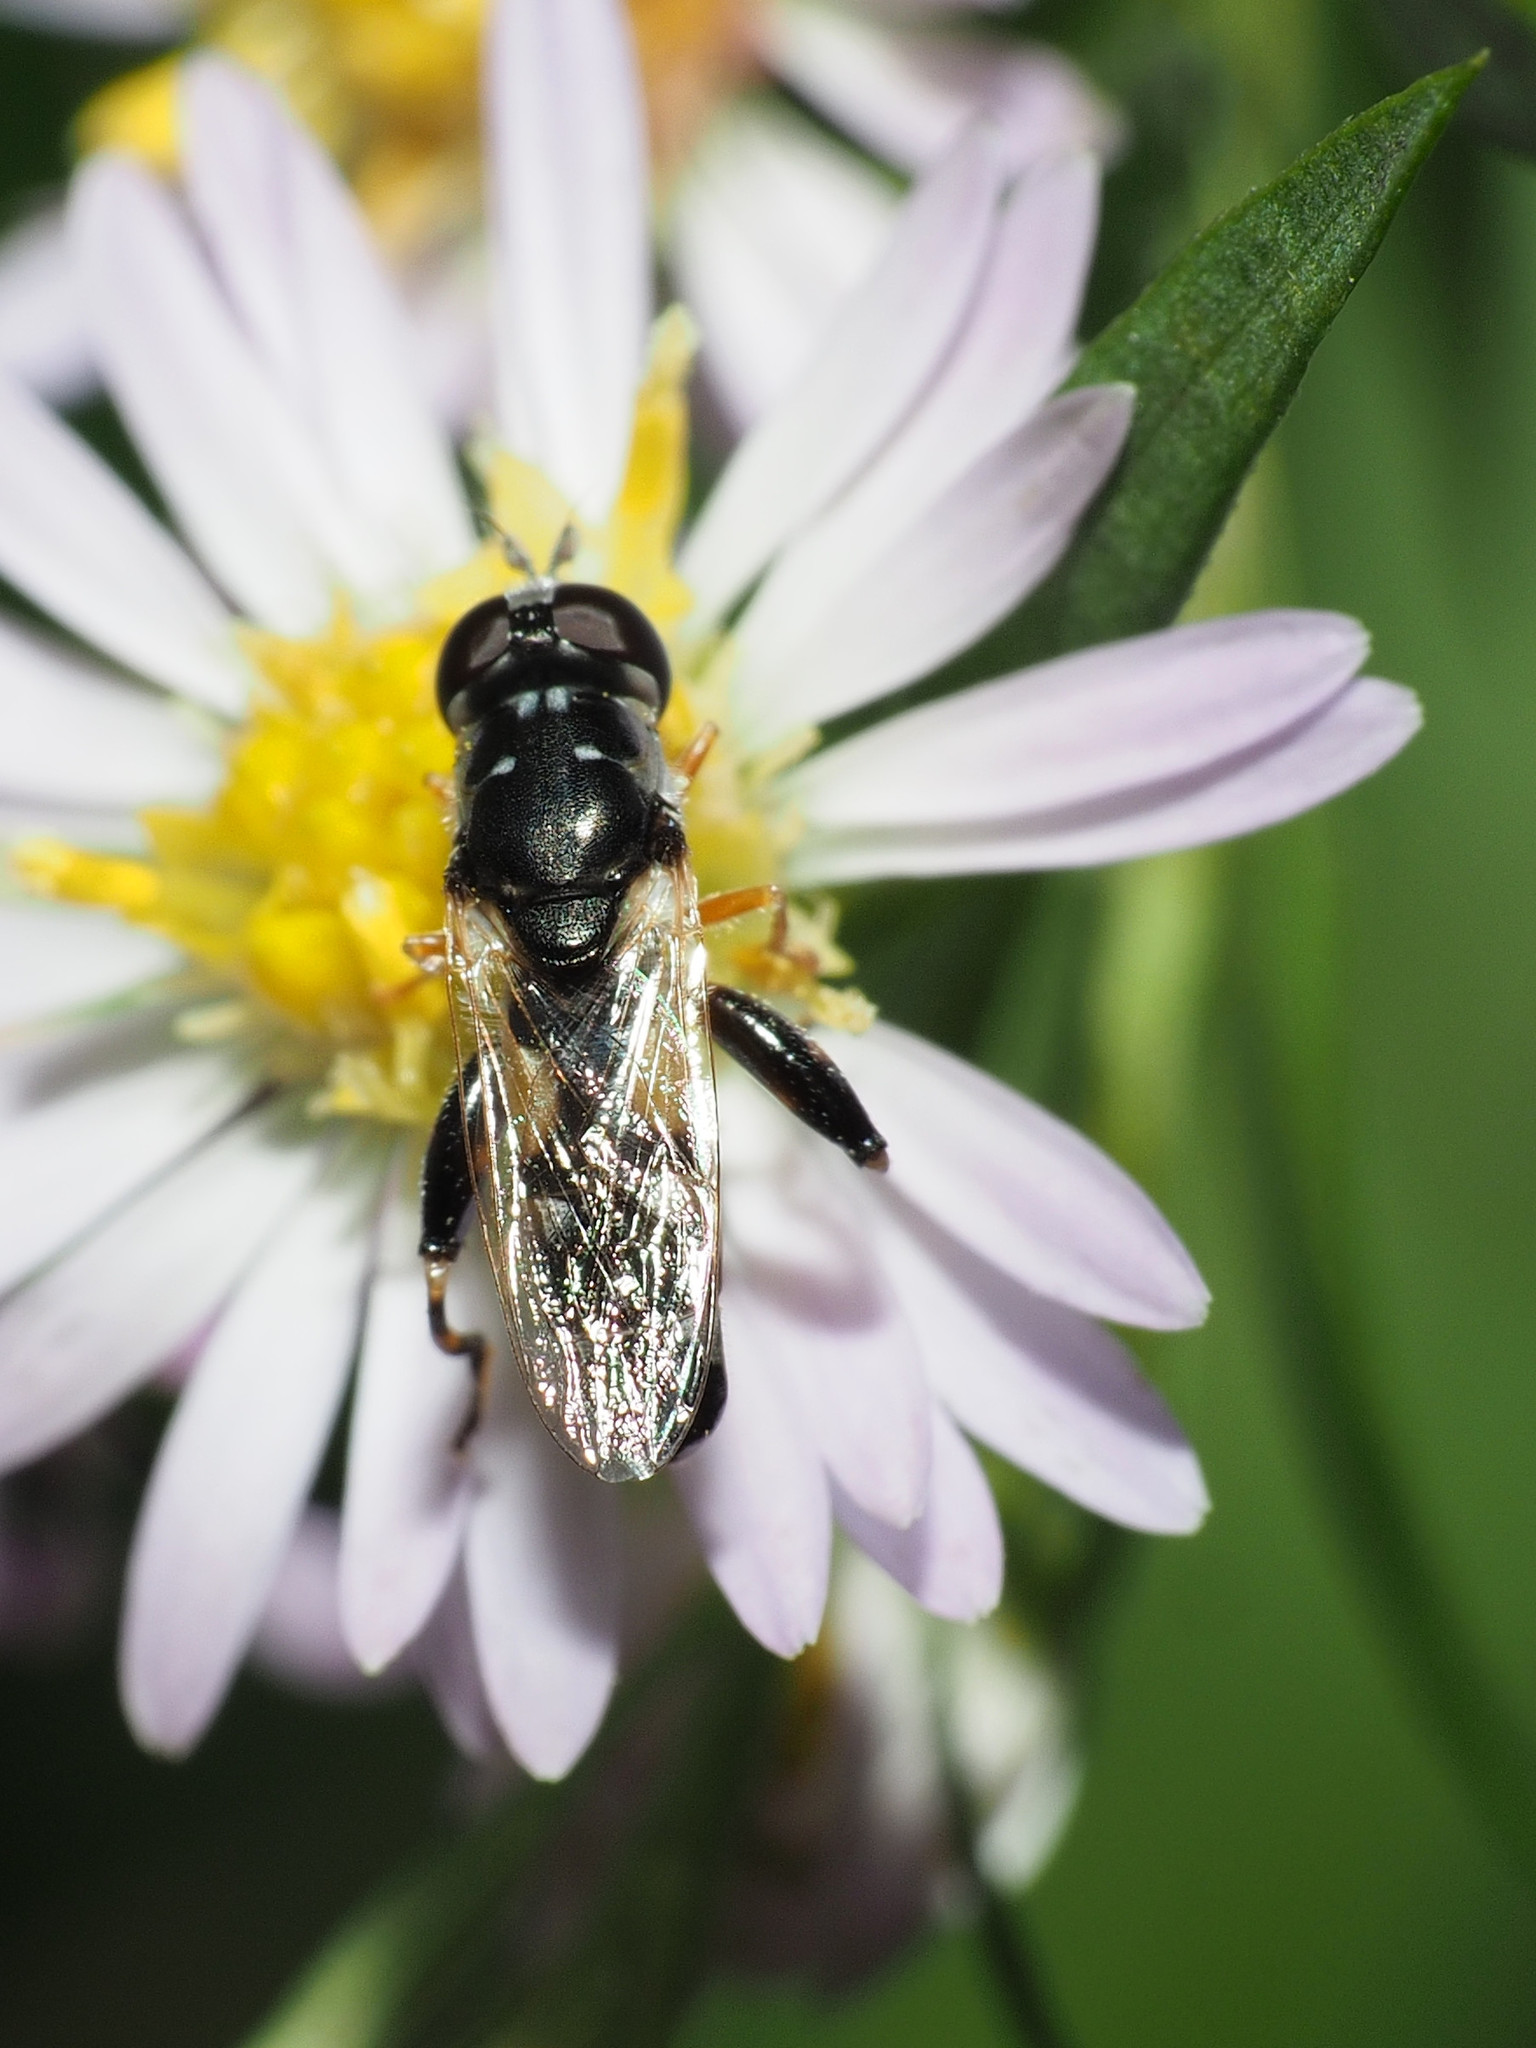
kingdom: Animalia
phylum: Arthropoda
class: Insecta
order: Diptera
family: Syrphidae
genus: Syritta
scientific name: Syritta flaviventris
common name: Syrphid fly
